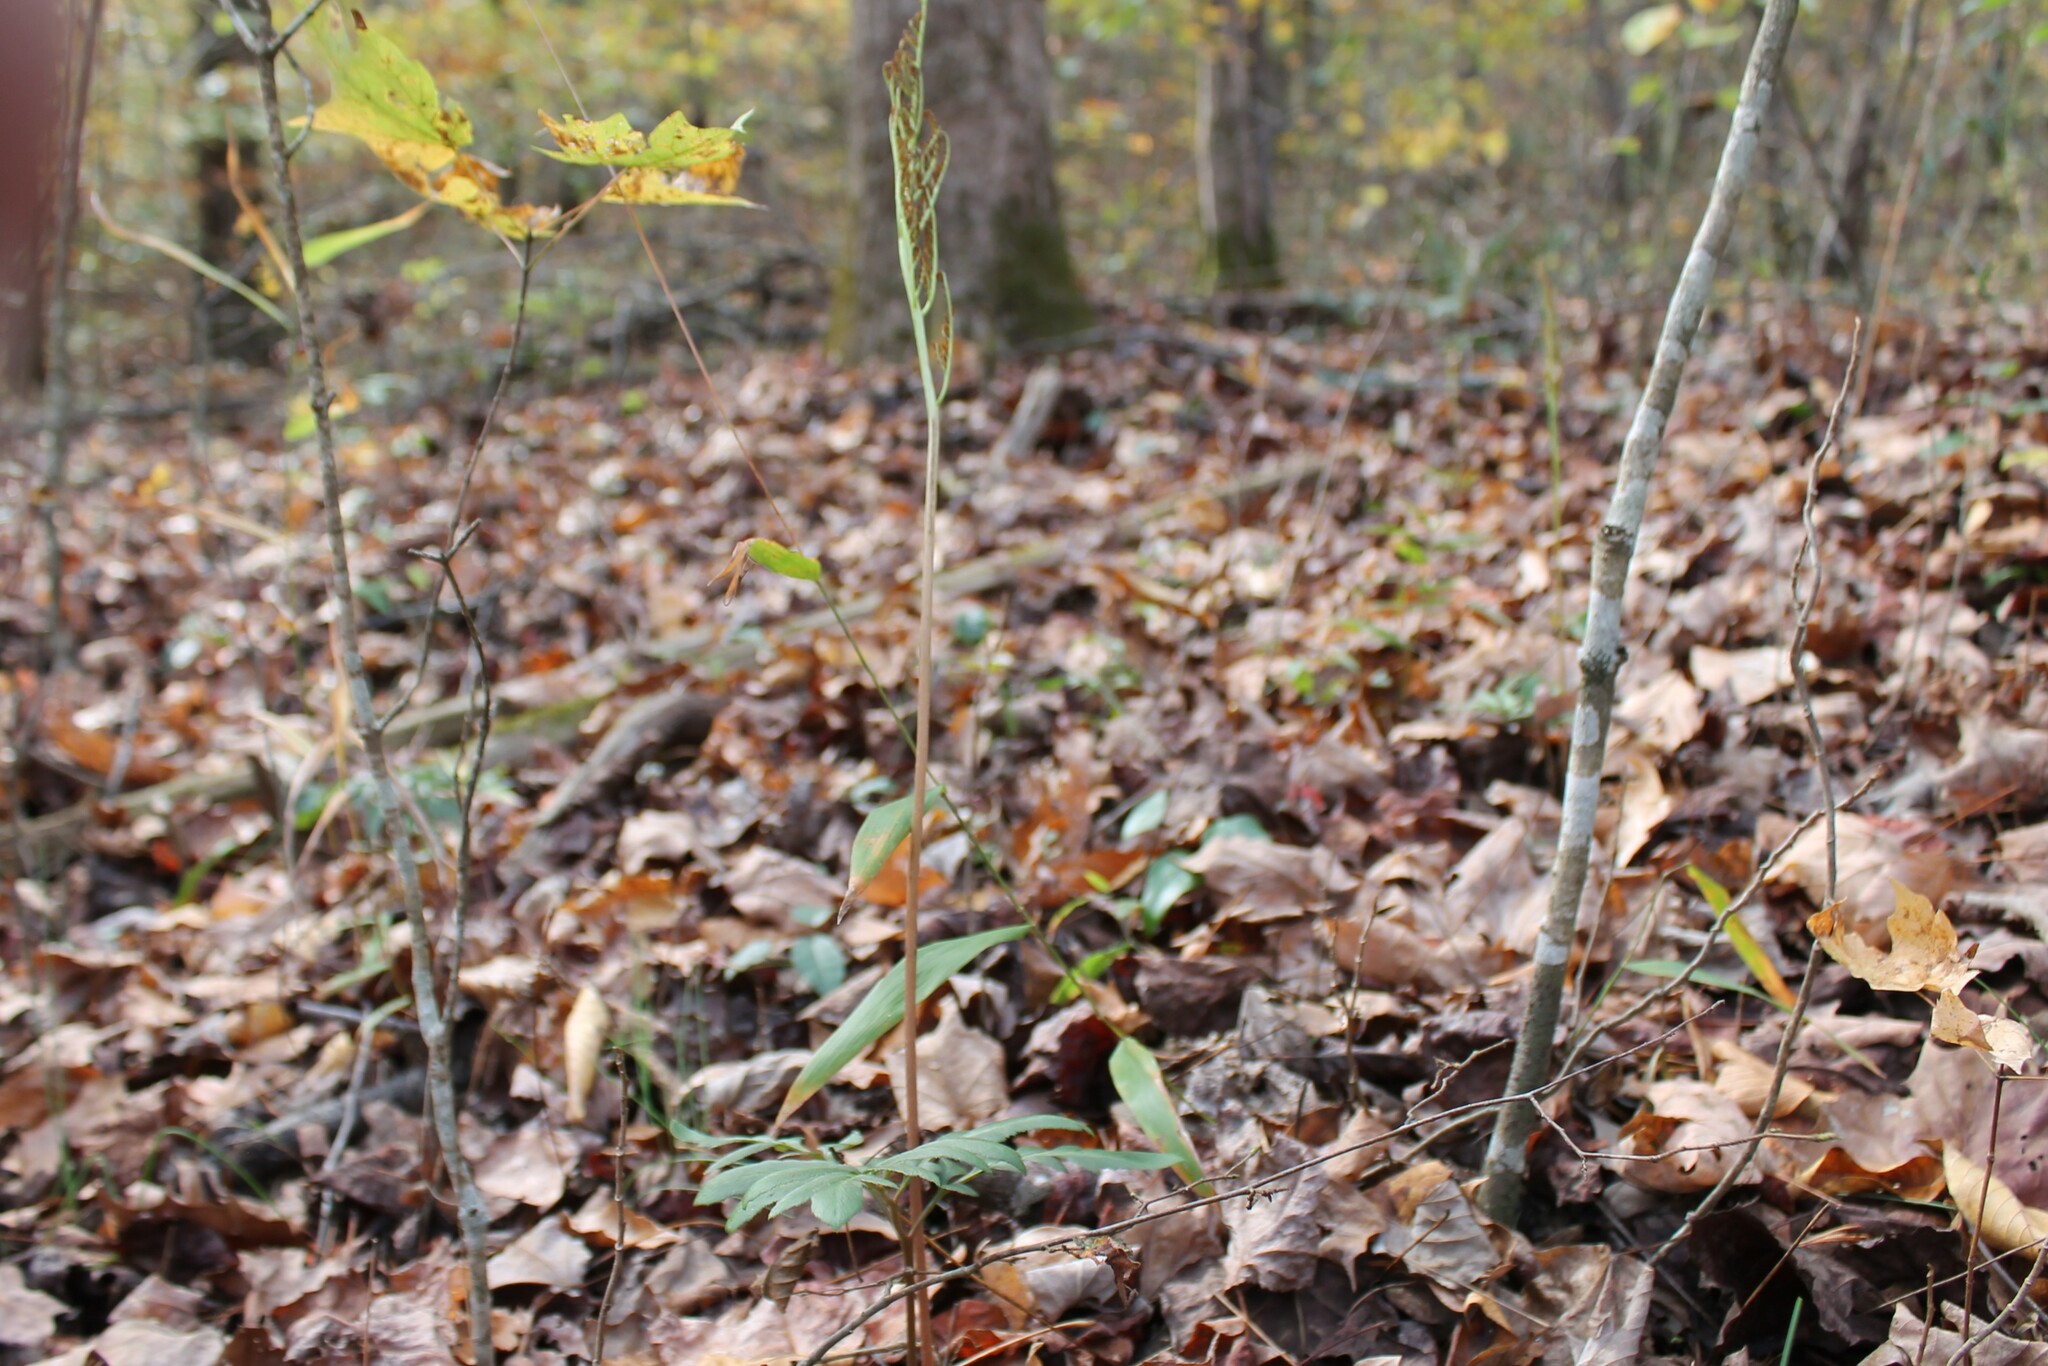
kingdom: Plantae
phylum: Tracheophyta
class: Polypodiopsida
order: Ophioglossales
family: Ophioglossaceae
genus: Sceptridium
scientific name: Sceptridium dissectum
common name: Cut-leaved grapefern
